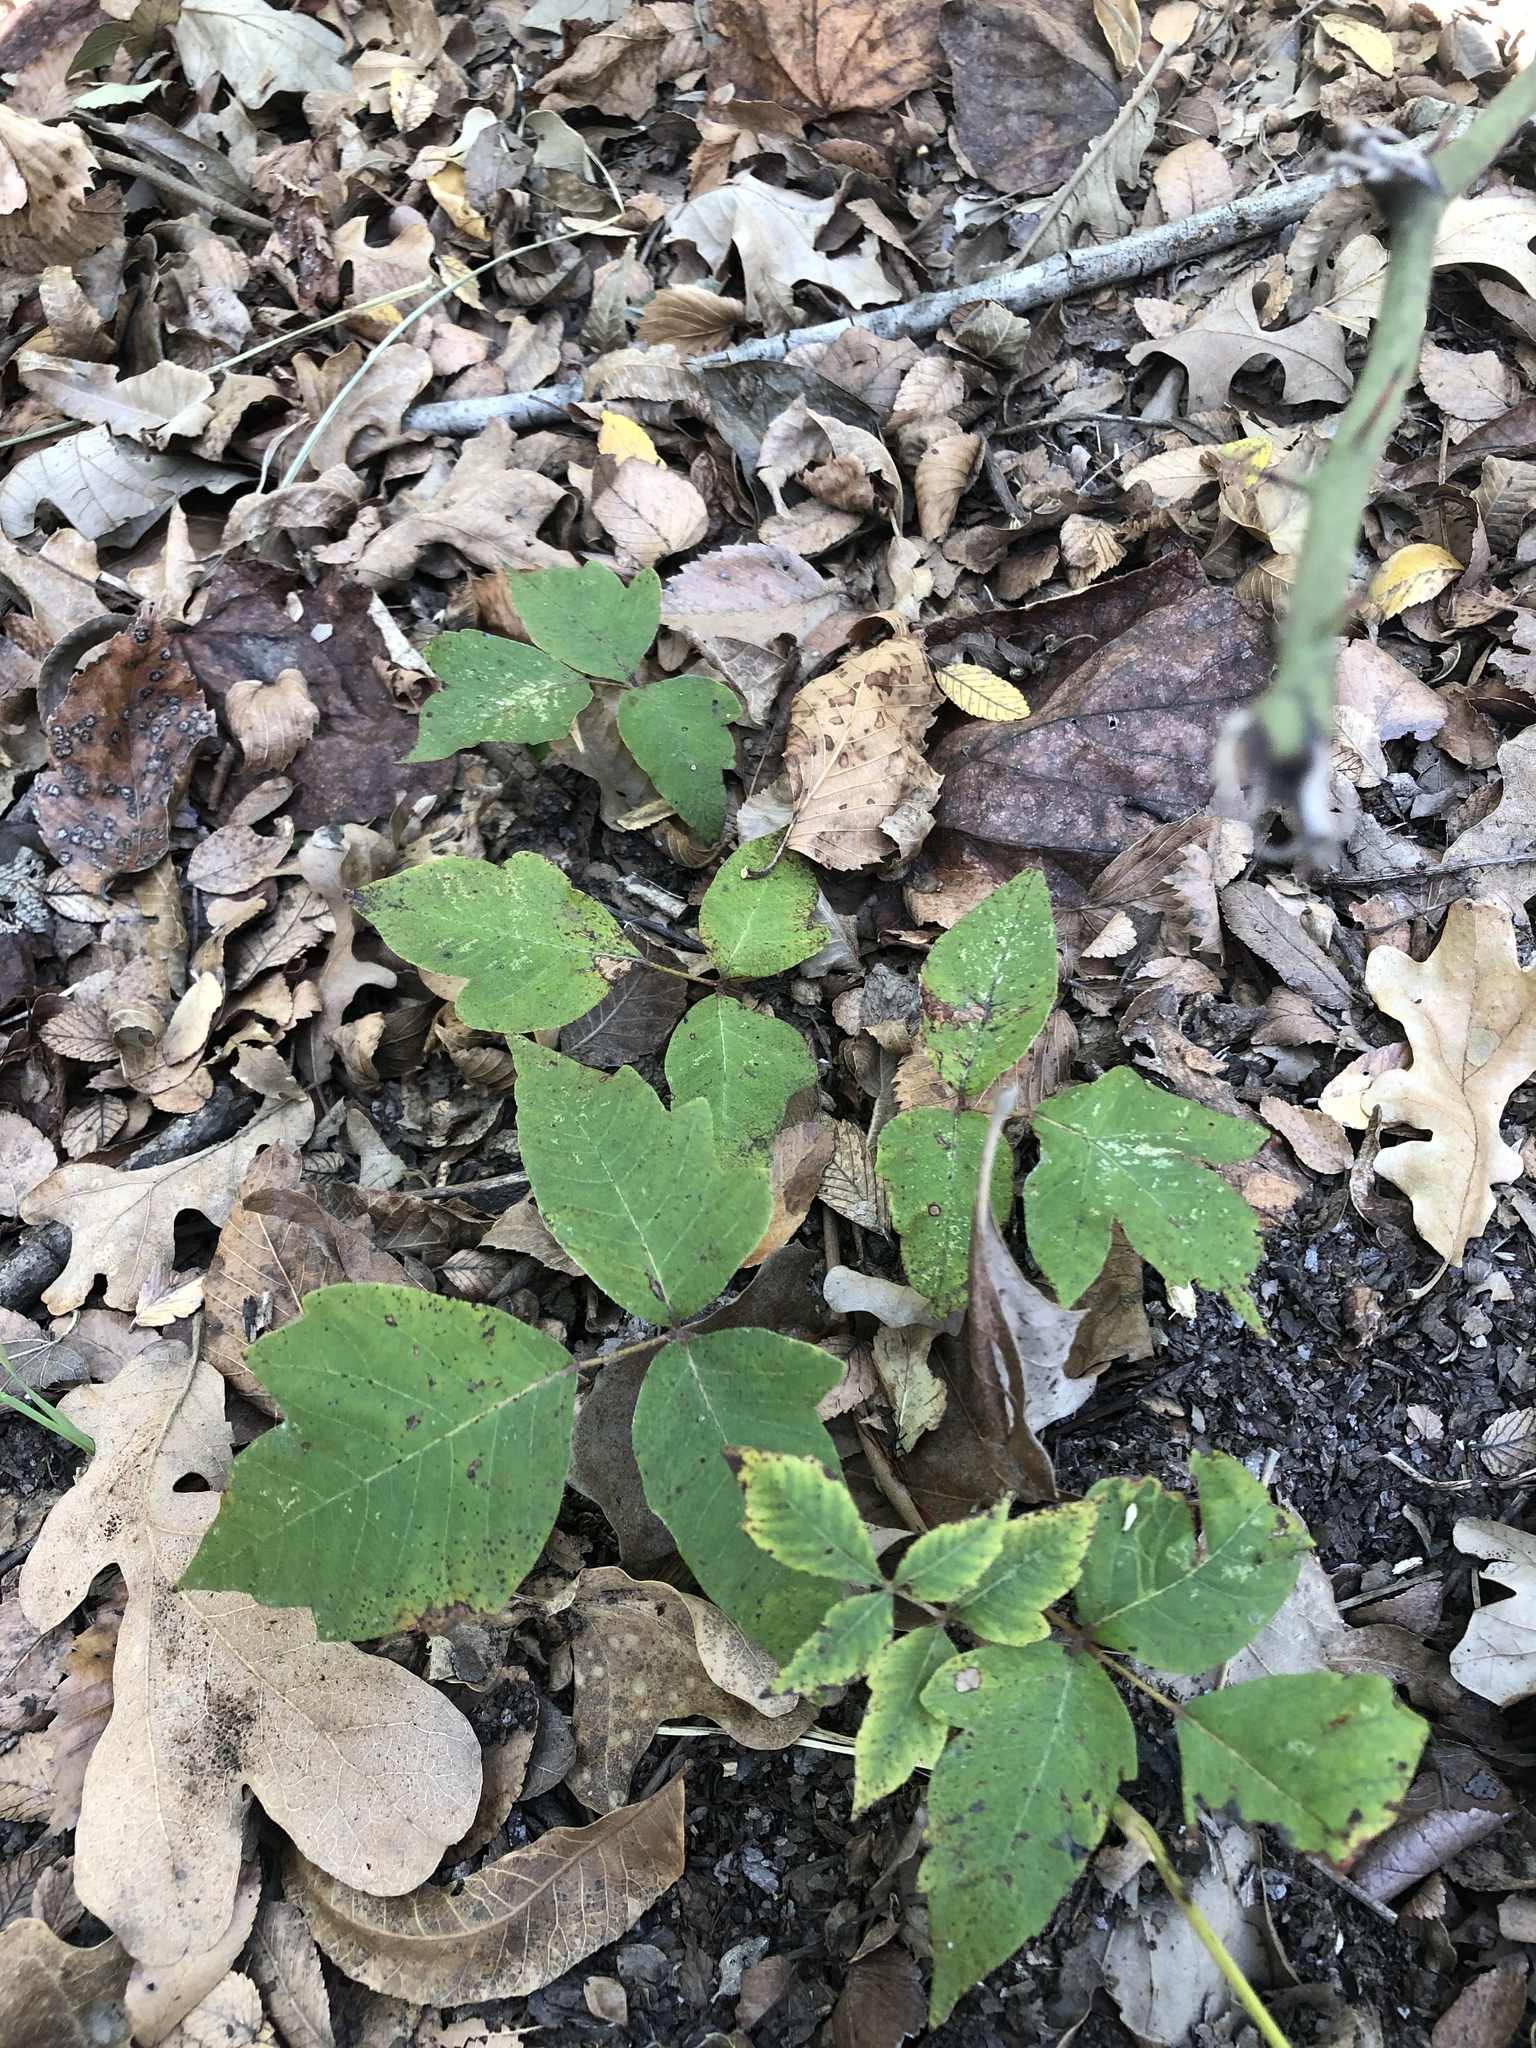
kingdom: Plantae
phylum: Tracheophyta
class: Magnoliopsida
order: Sapindales
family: Anacardiaceae
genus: Toxicodendron
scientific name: Toxicodendron radicans
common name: Poison ivy
